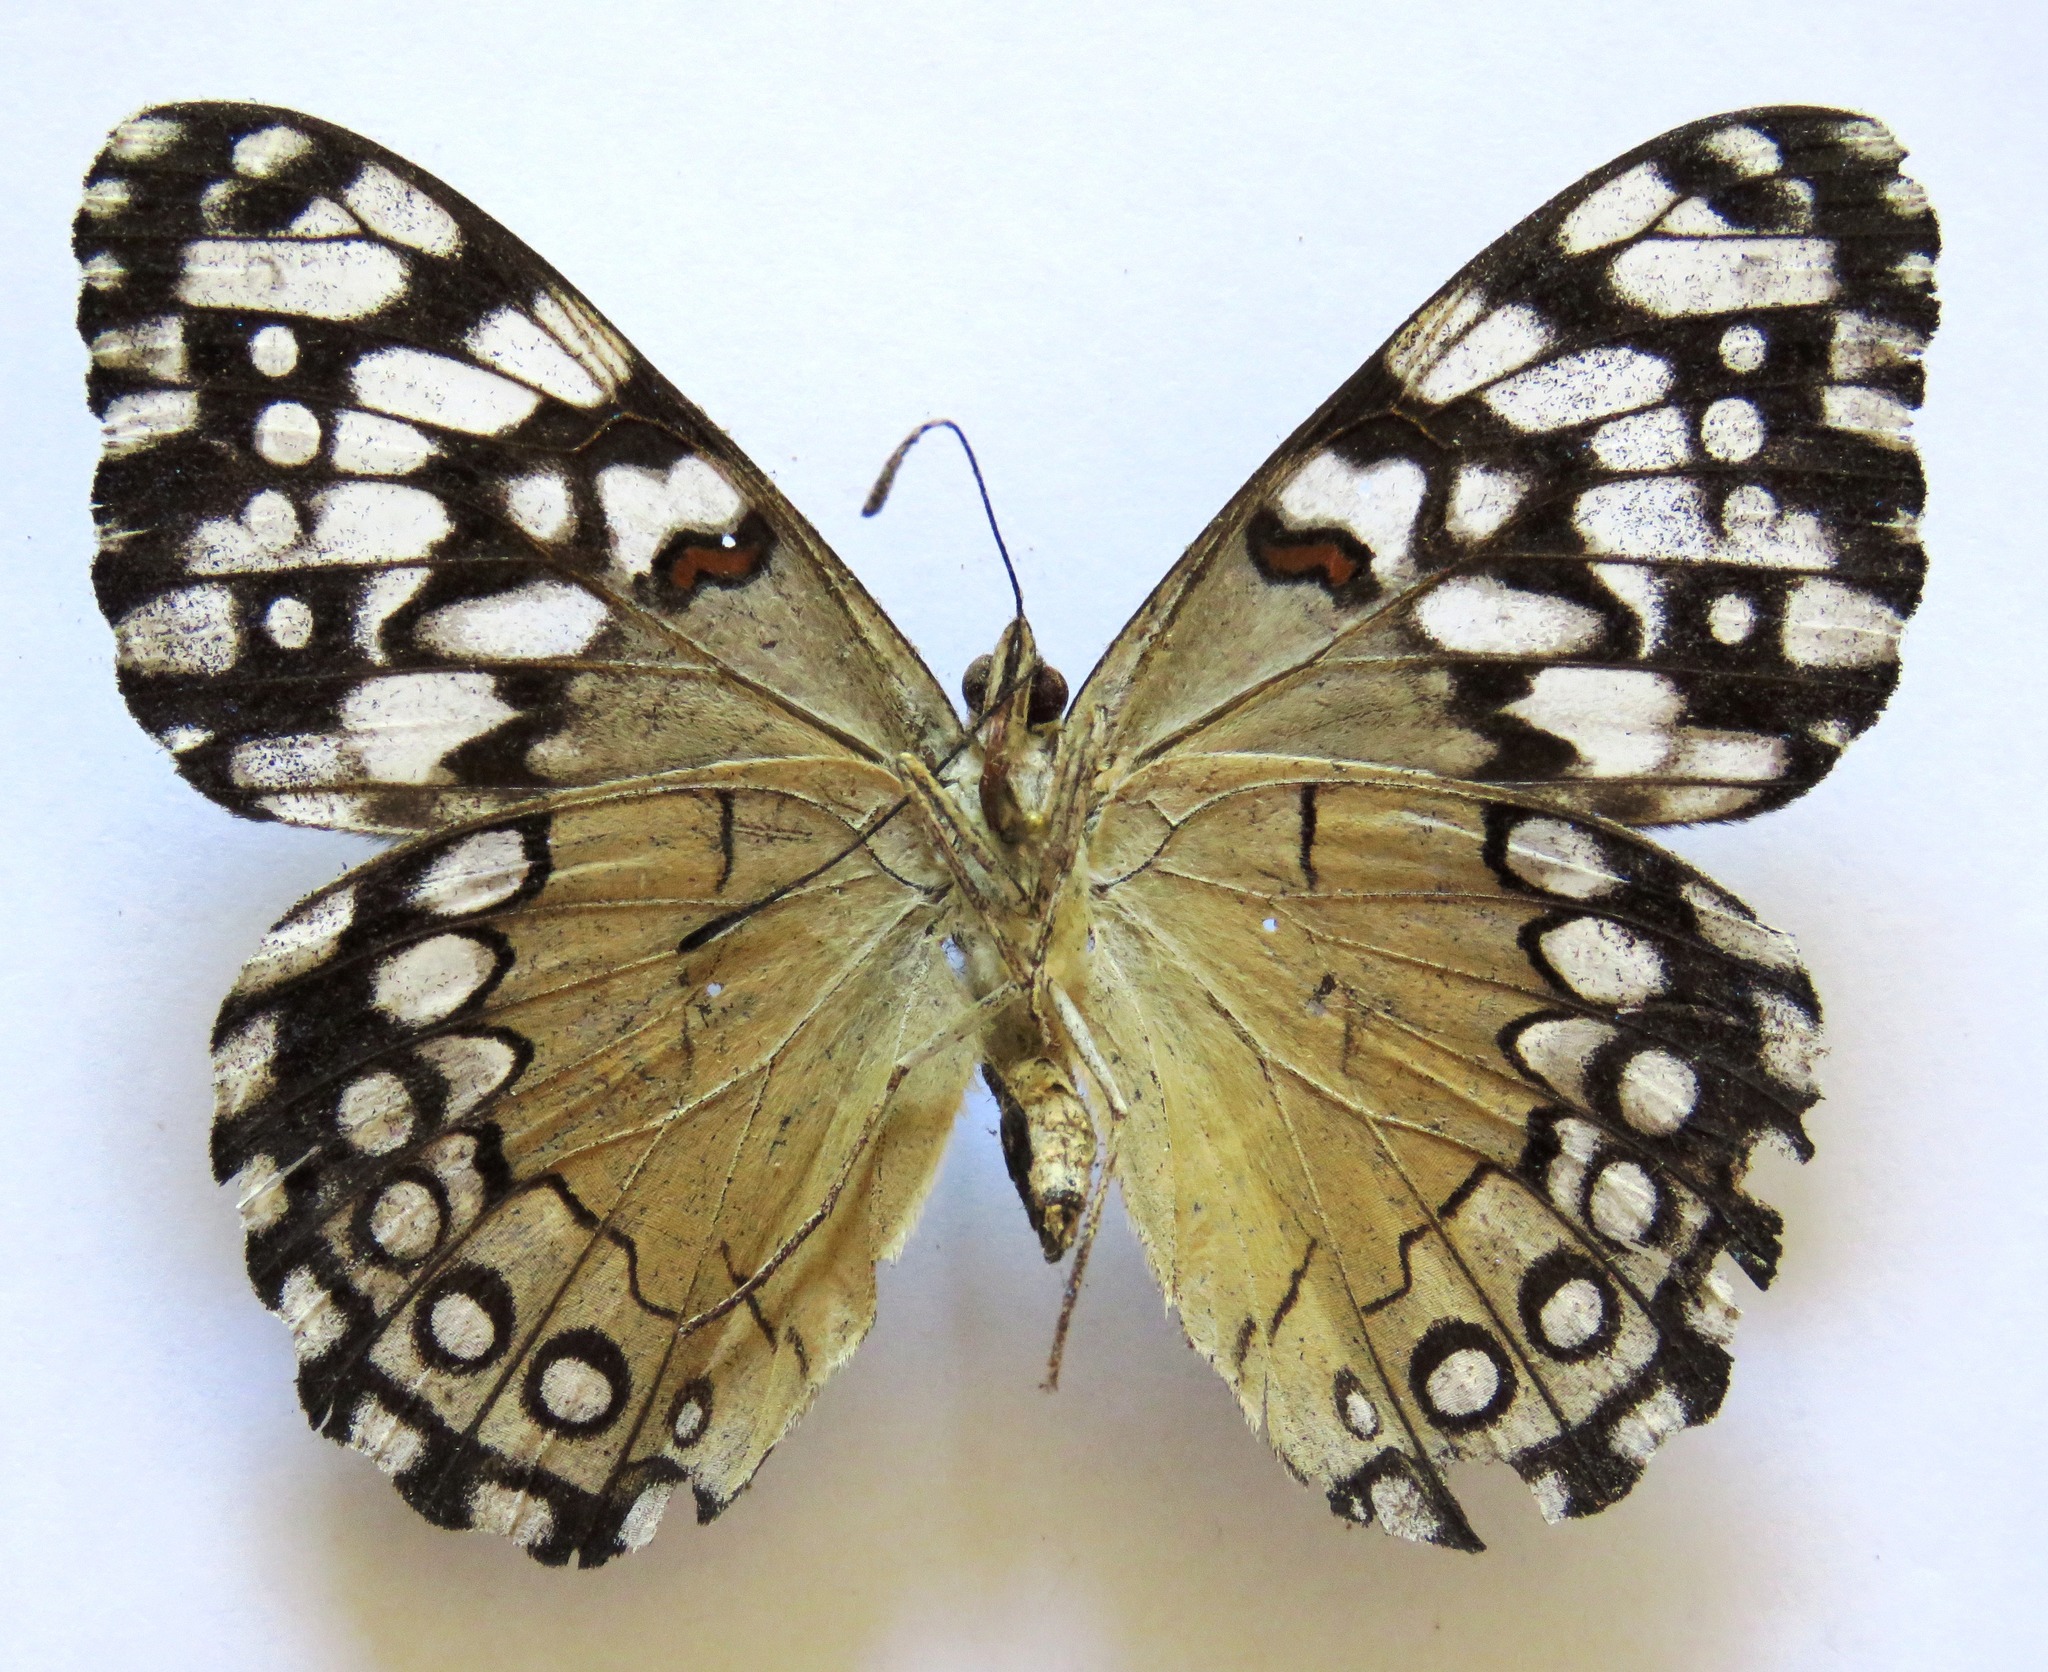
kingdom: Animalia
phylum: Arthropoda
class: Insecta
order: Lepidoptera
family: Nymphalidae
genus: Hamadryas
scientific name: Hamadryas guatemalena
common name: Guatemalan cracker
